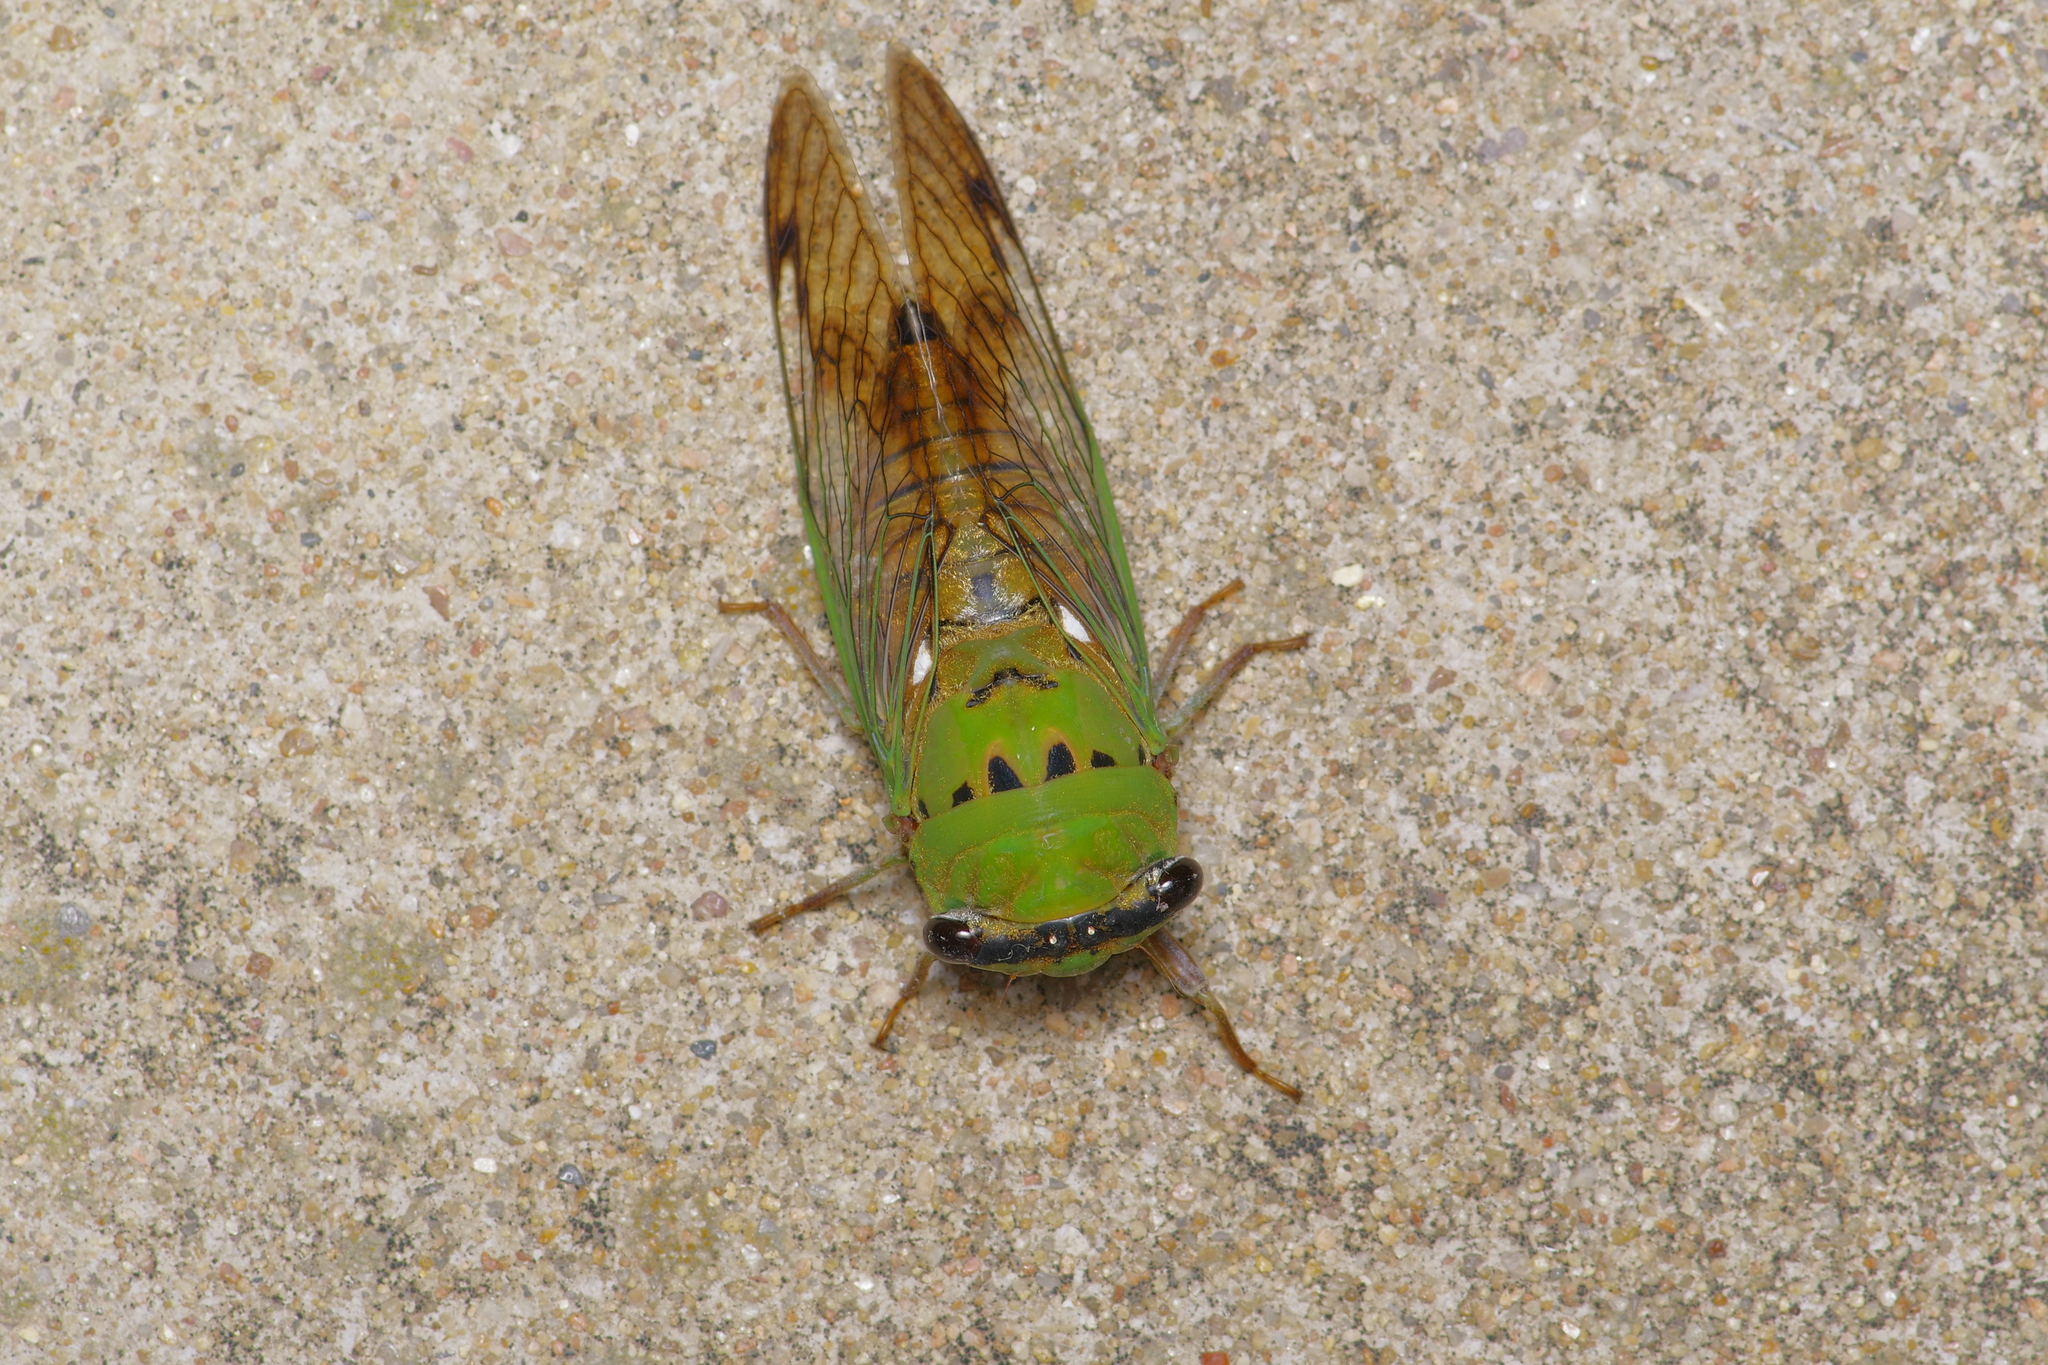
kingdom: Animalia
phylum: Arthropoda
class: Insecta
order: Hemiptera
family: Cicadidae
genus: Neotibicen
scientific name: Neotibicen superbus
